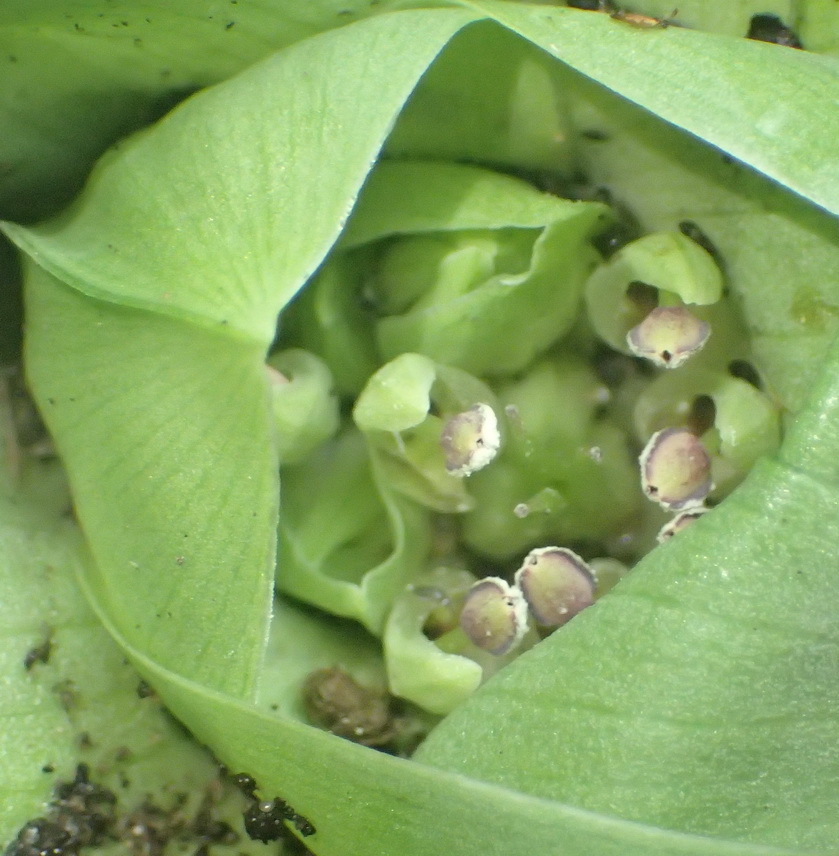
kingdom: Plantae
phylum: Tracheophyta
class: Liliopsida
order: Liliales
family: Colchicaceae
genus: Colchicum
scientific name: Colchicum eucomoides
